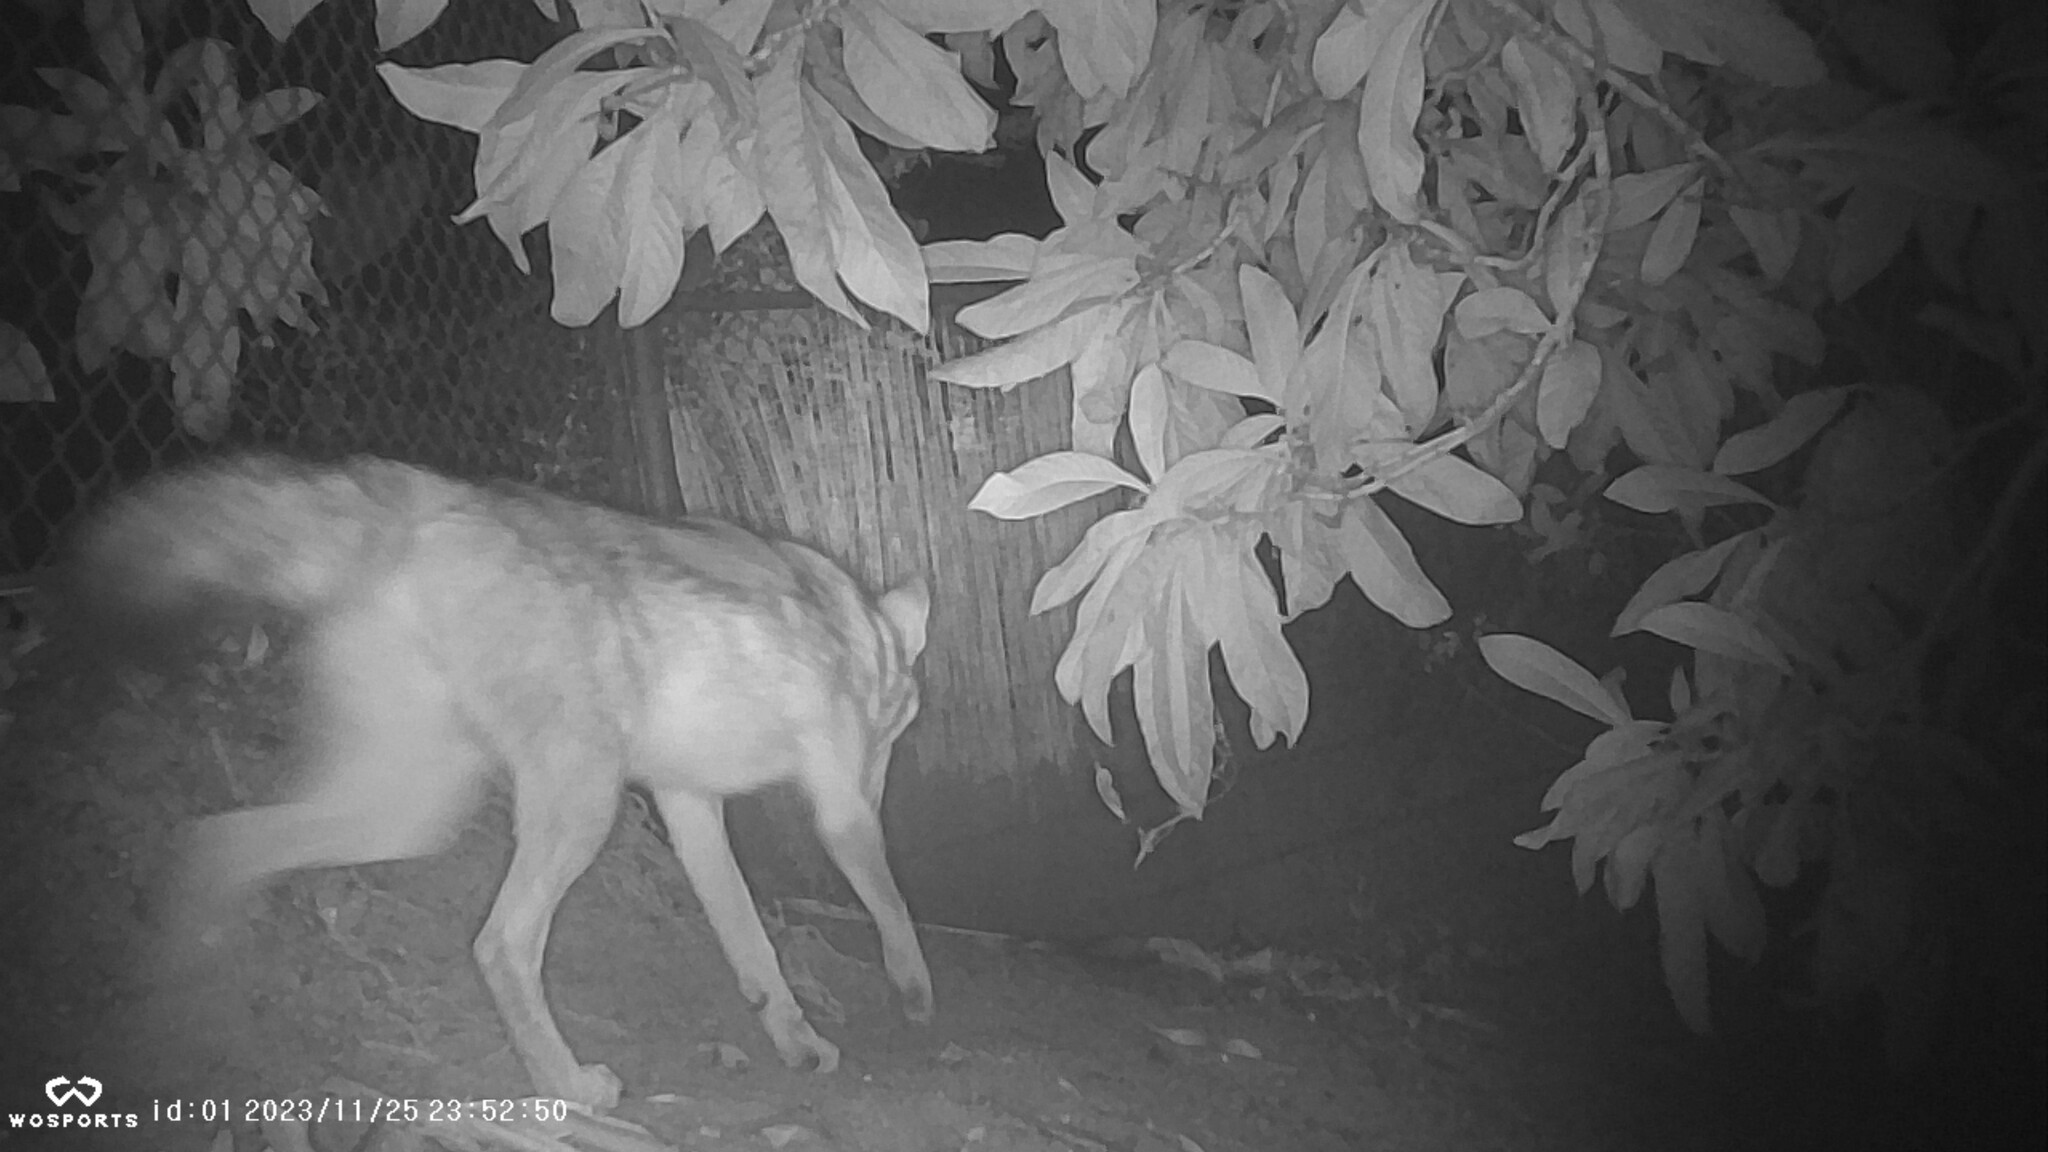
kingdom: Animalia
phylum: Chordata
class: Mammalia
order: Carnivora
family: Canidae
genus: Canis
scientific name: Canis latrans
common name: Coyote
